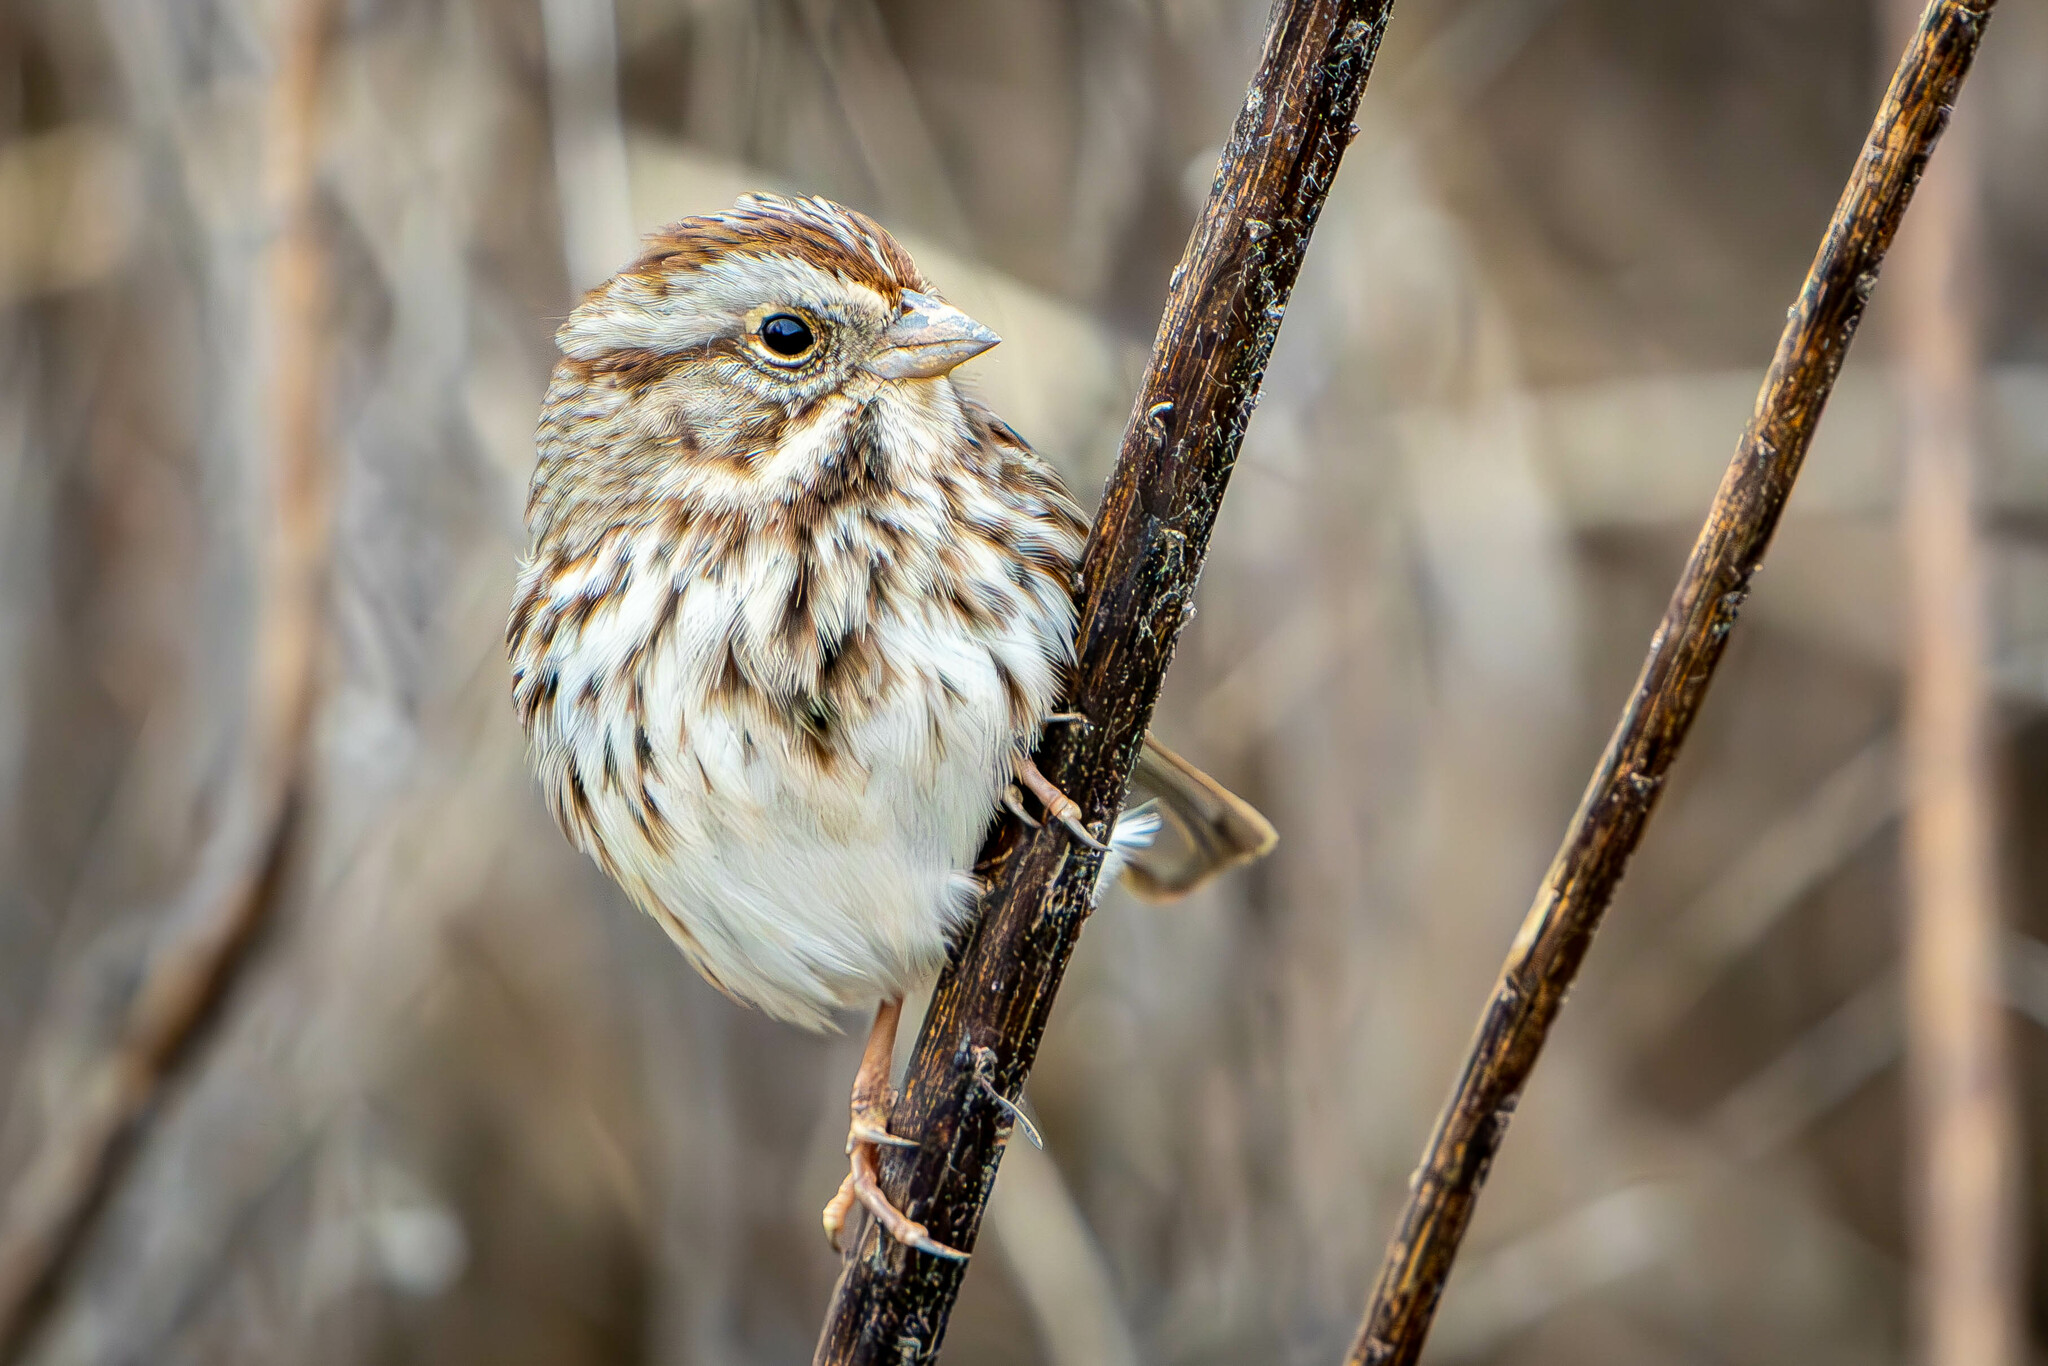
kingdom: Animalia
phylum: Chordata
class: Aves
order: Passeriformes
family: Passerellidae
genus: Melospiza
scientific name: Melospiza melodia
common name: Song sparrow
